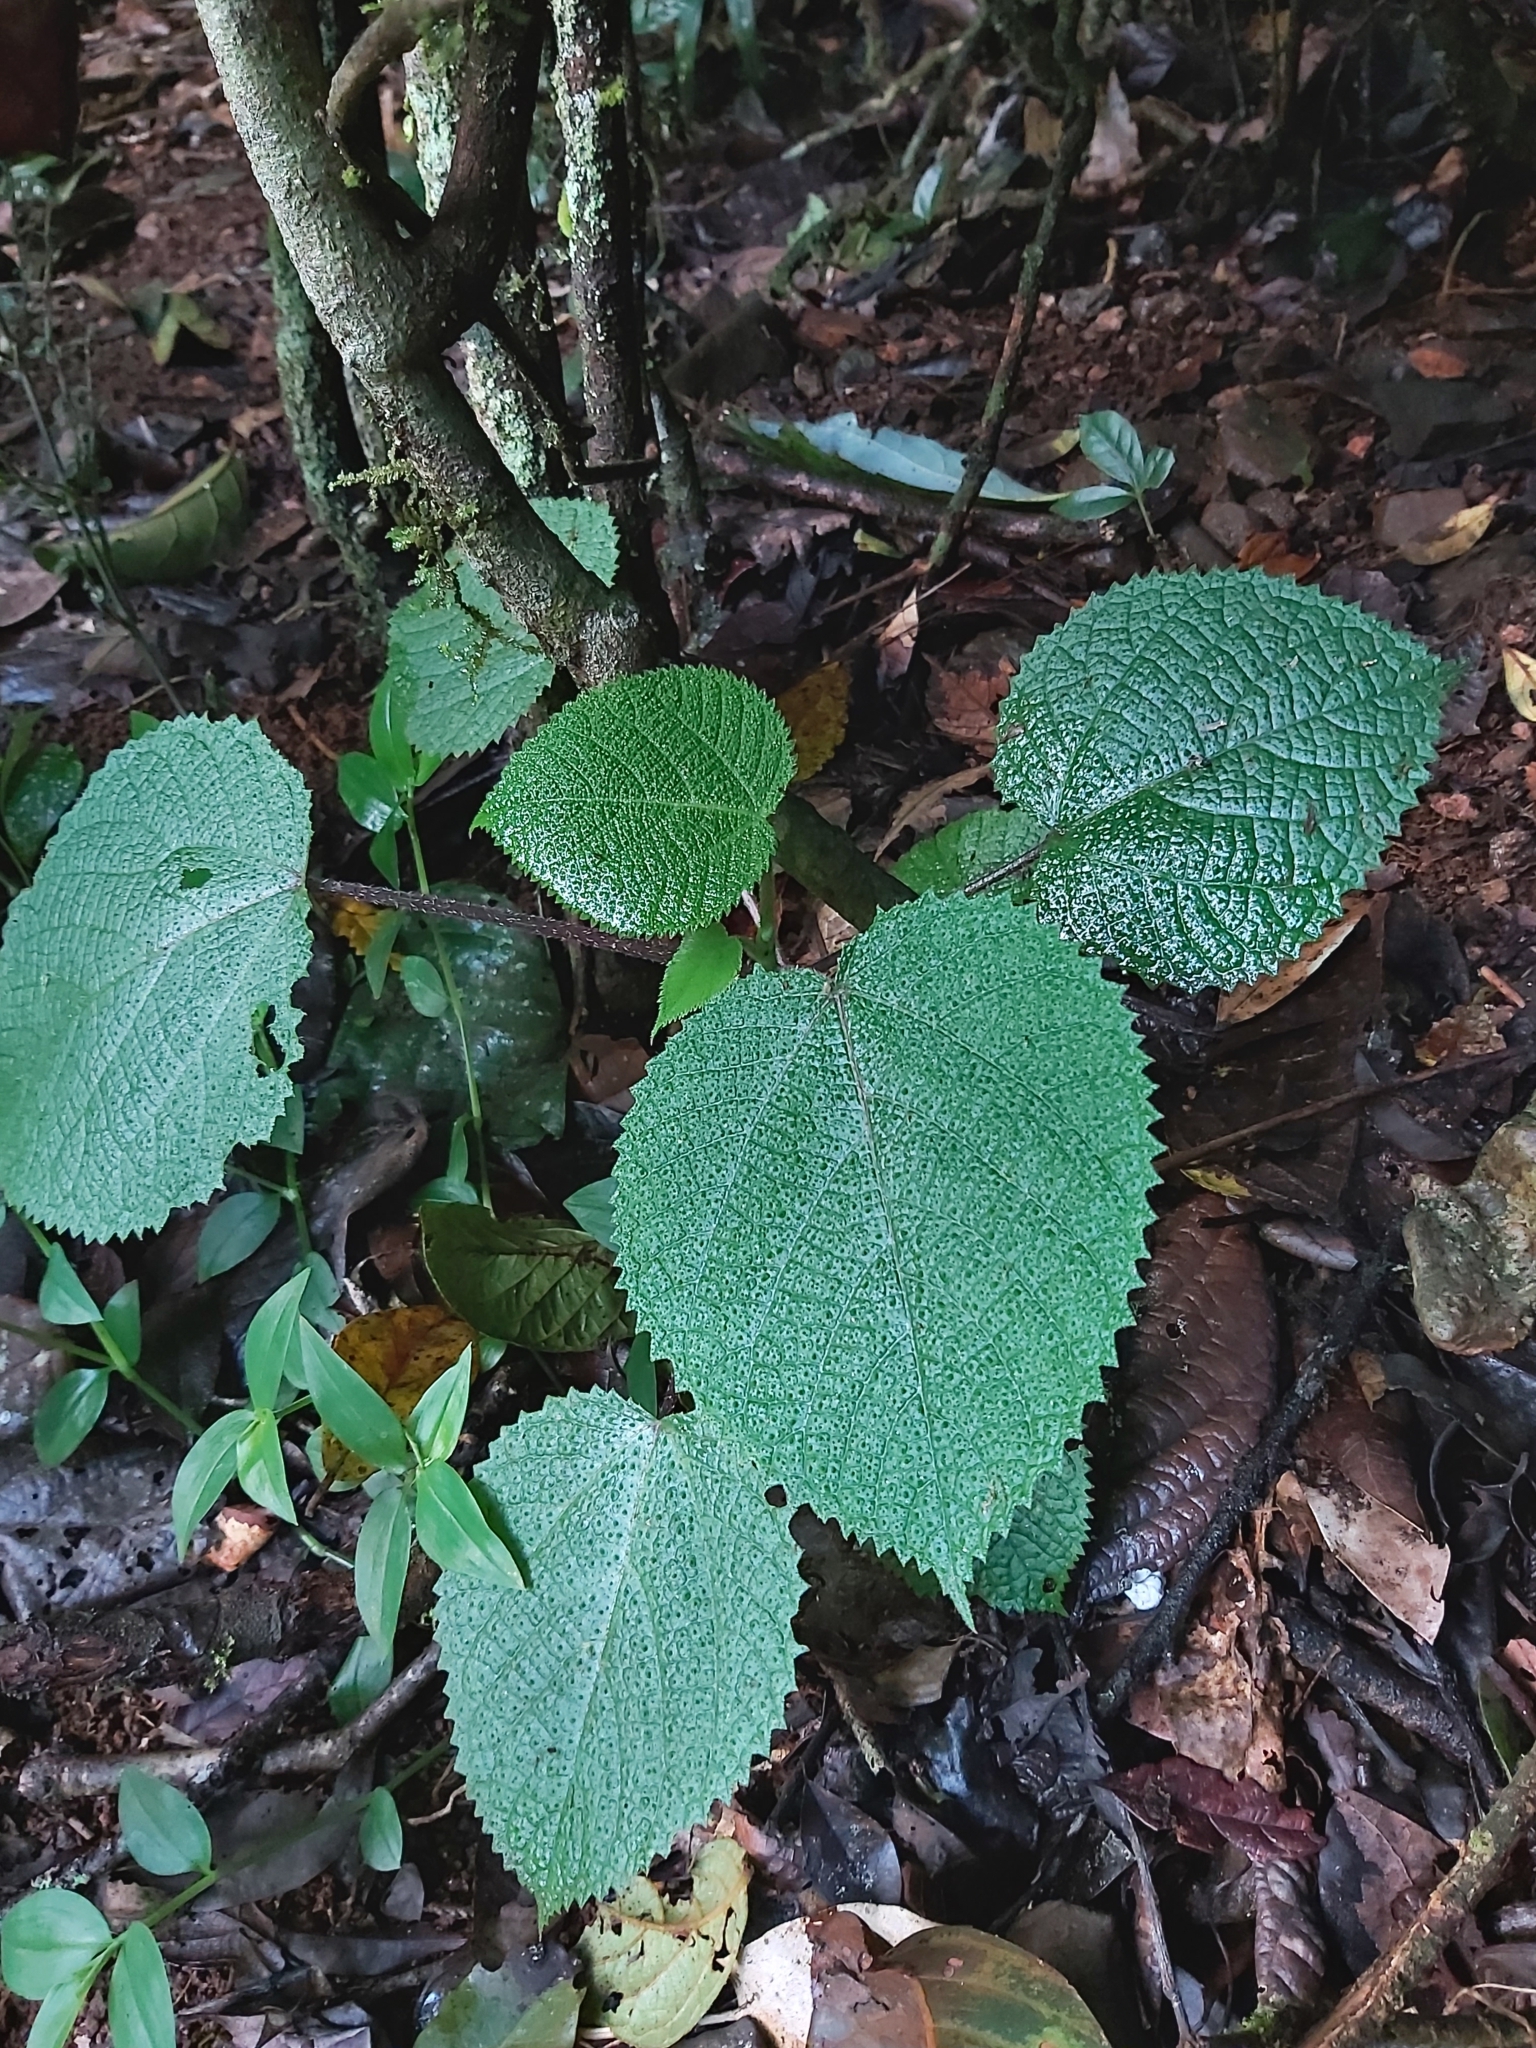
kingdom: Plantae
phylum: Tracheophyta
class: Magnoliopsida
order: Rosales
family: Urticaceae
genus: Dendrocnide
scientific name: Dendrocnide cordifolia
